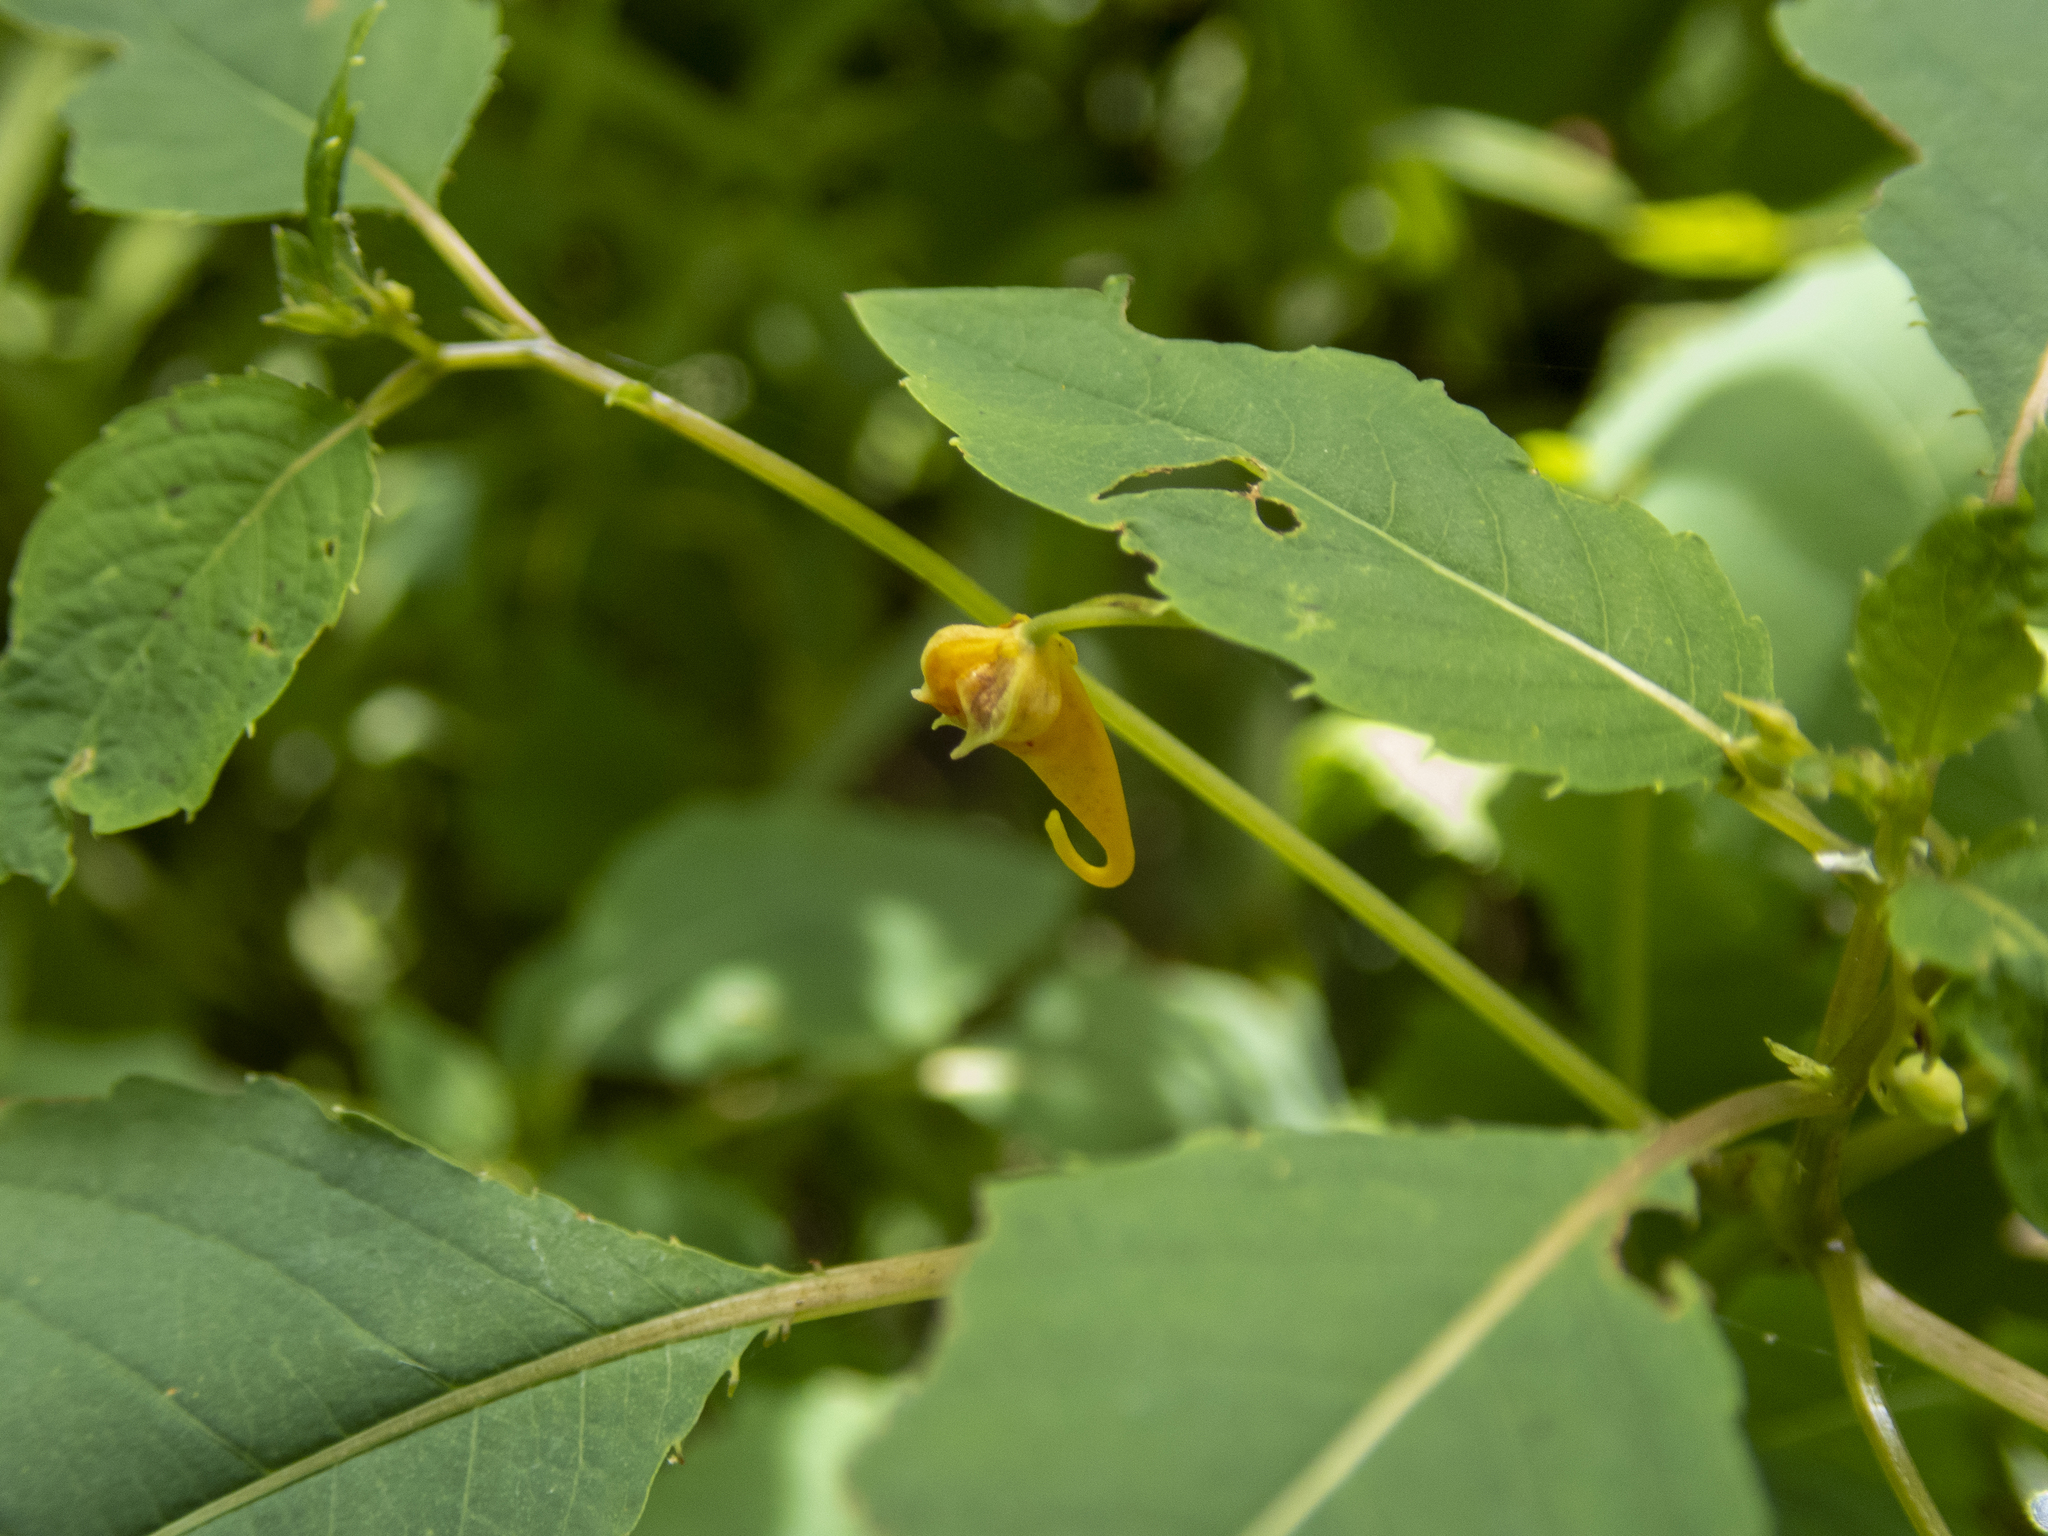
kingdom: Plantae
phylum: Tracheophyta
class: Magnoliopsida
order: Ericales
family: Balsaminaceae
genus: Impatiens
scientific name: Impatiens capensis
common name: Orange balsam
